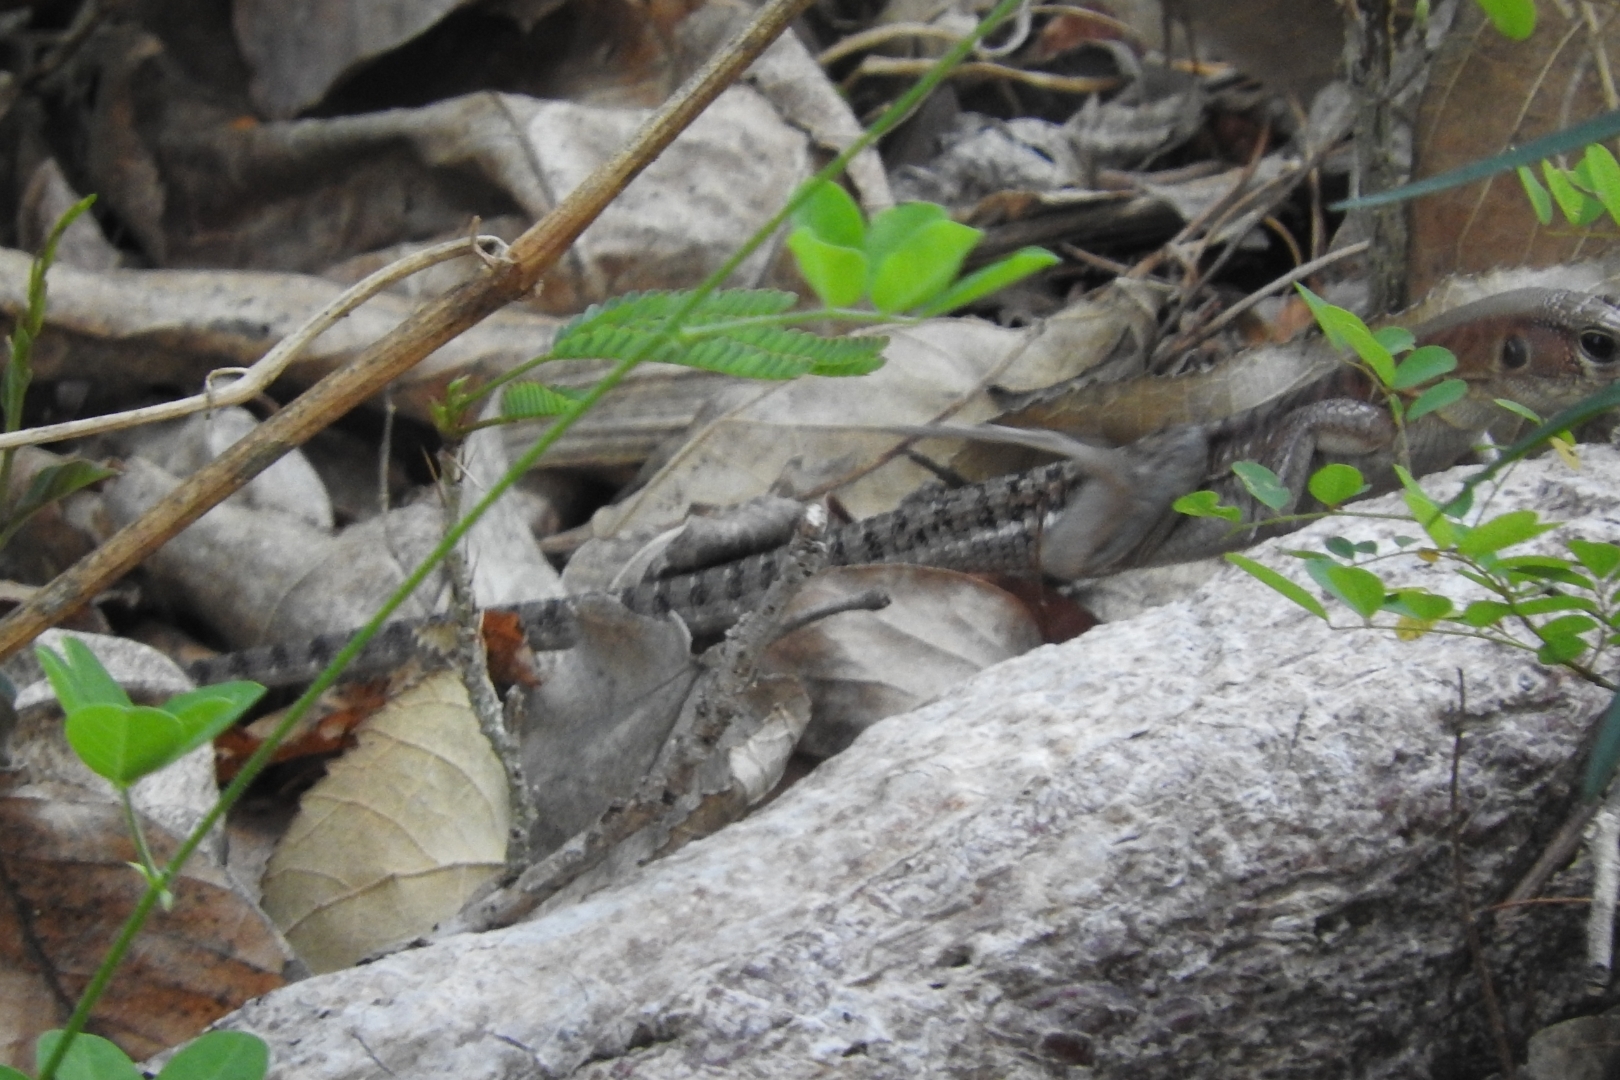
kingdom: Animalia
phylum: Chordata
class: Squamata
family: Teiidae
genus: Holcosus
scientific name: Holcosus undulatus
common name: Rainbow ameiva
